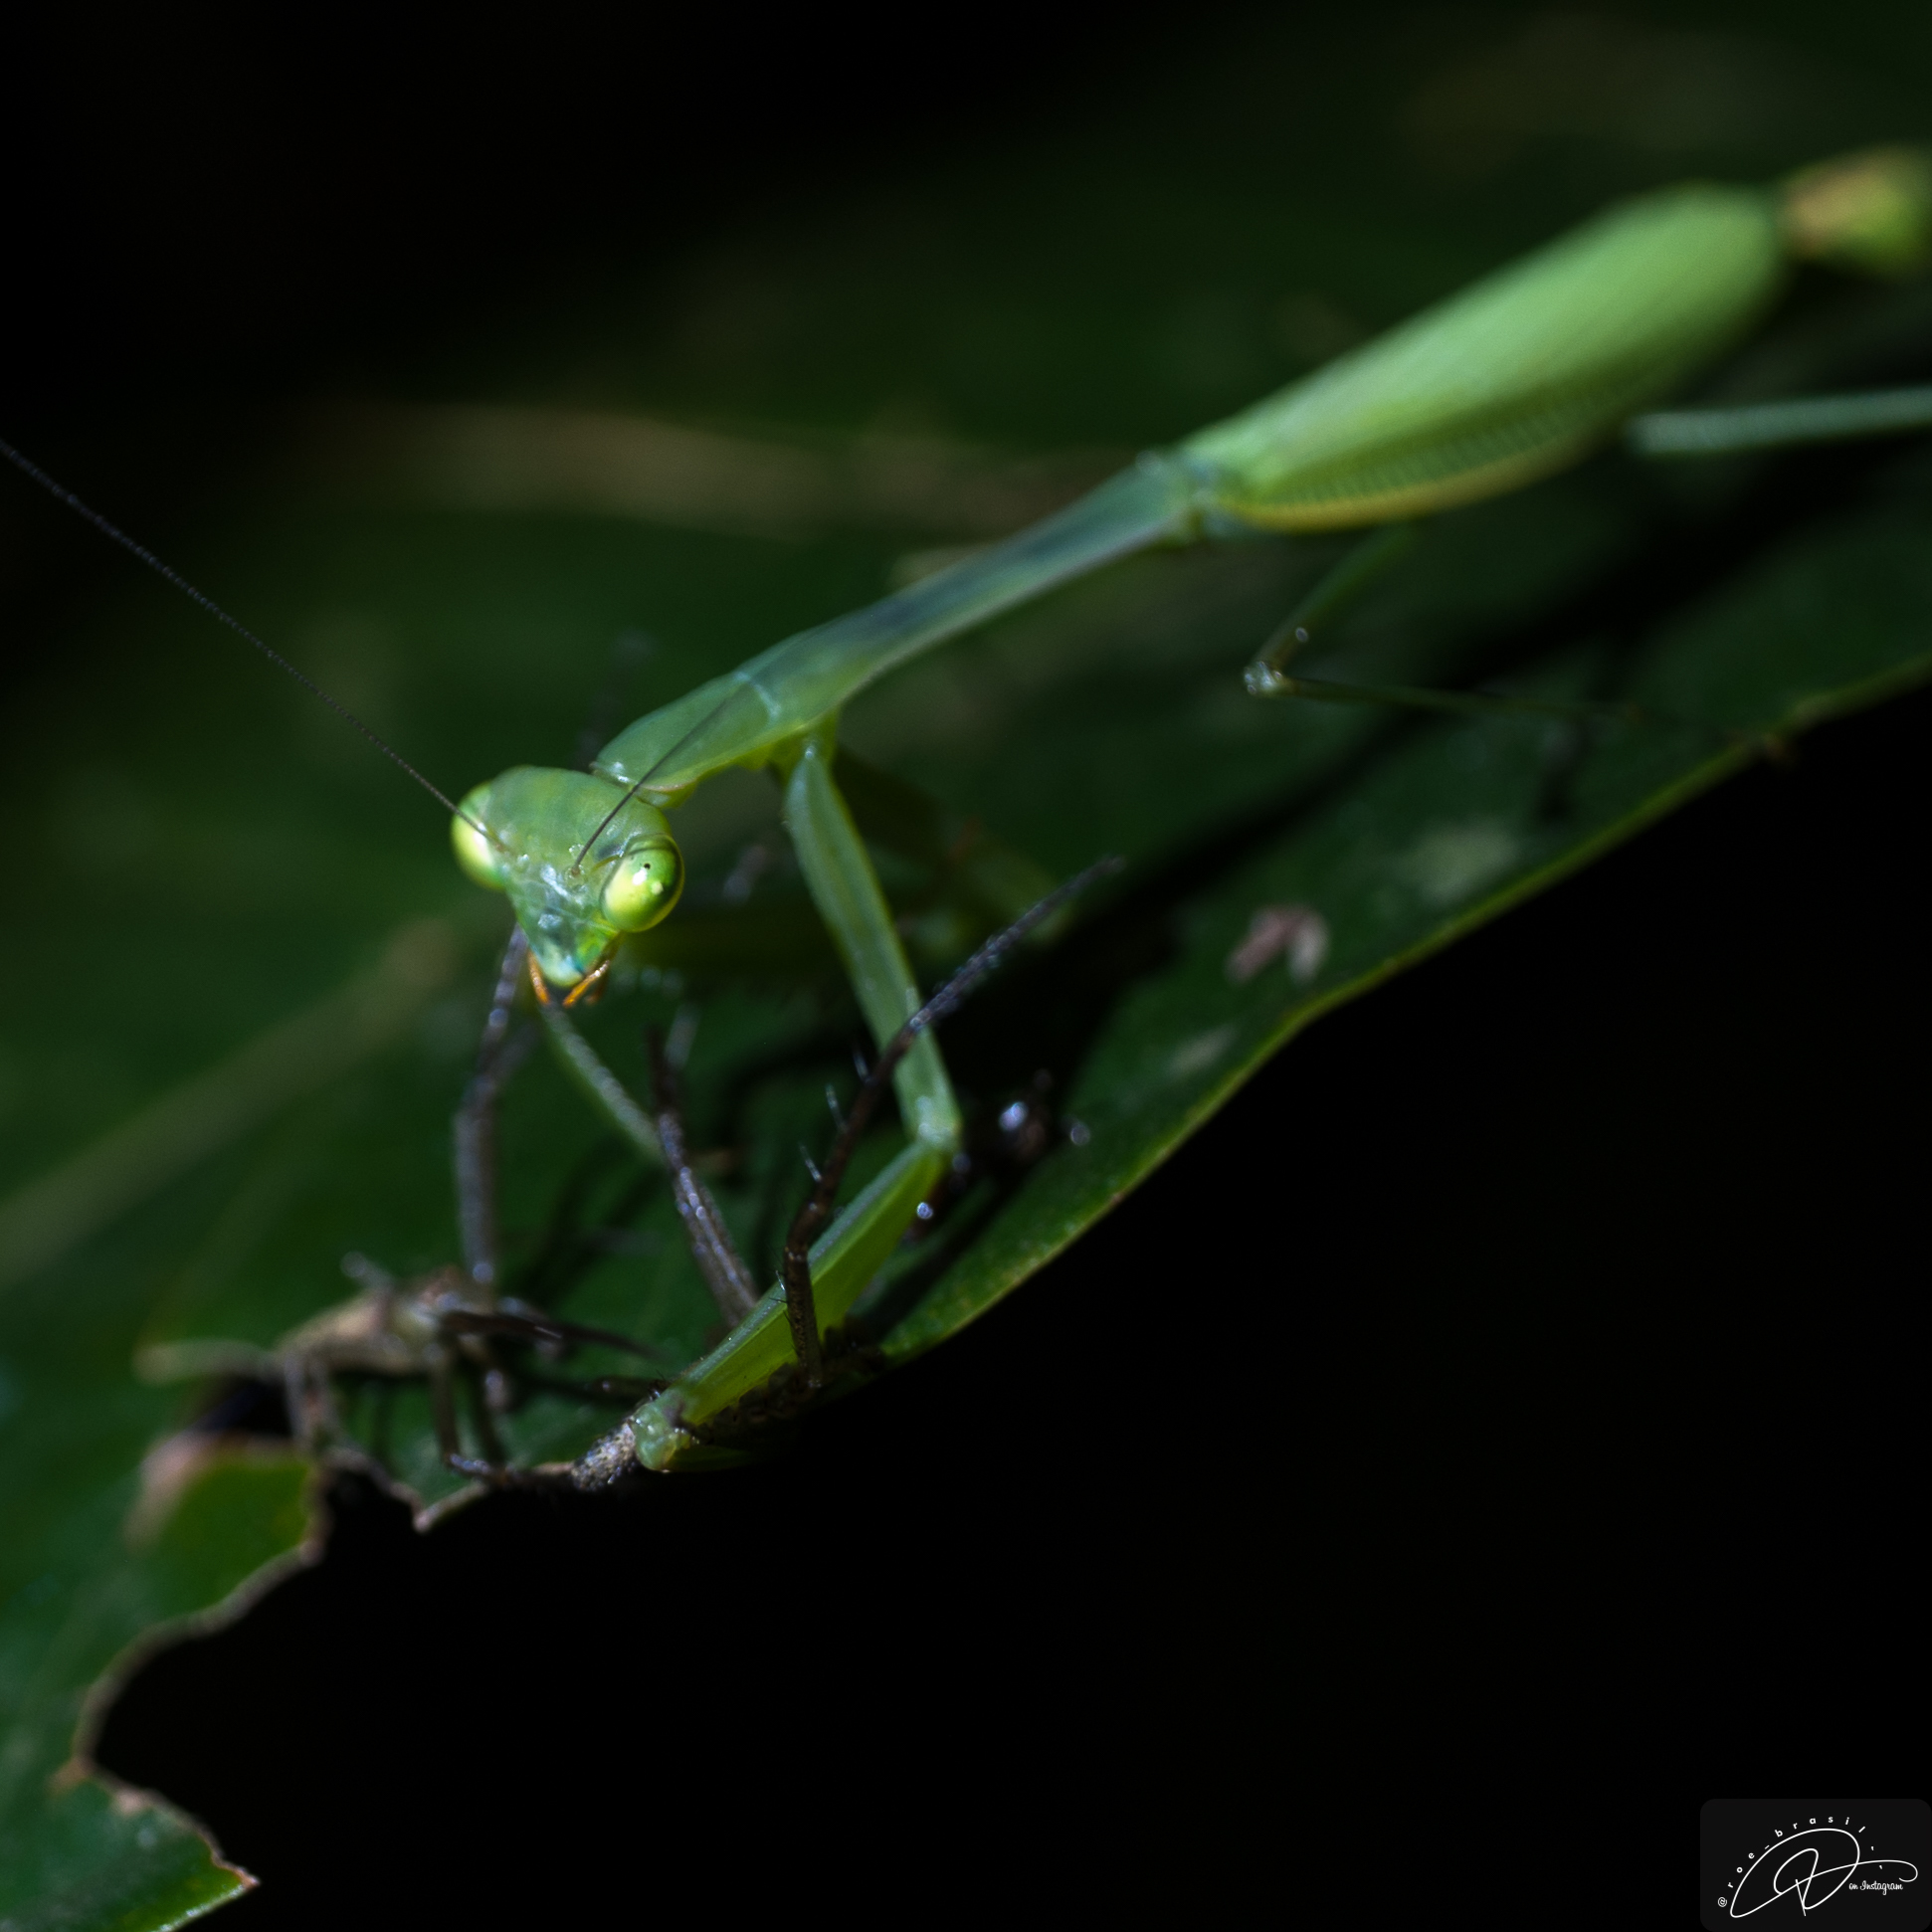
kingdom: Animalia
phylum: Arthropoda
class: Insecta
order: Mantodea
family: Photinaidae
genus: Hicetia
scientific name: Hicetia
